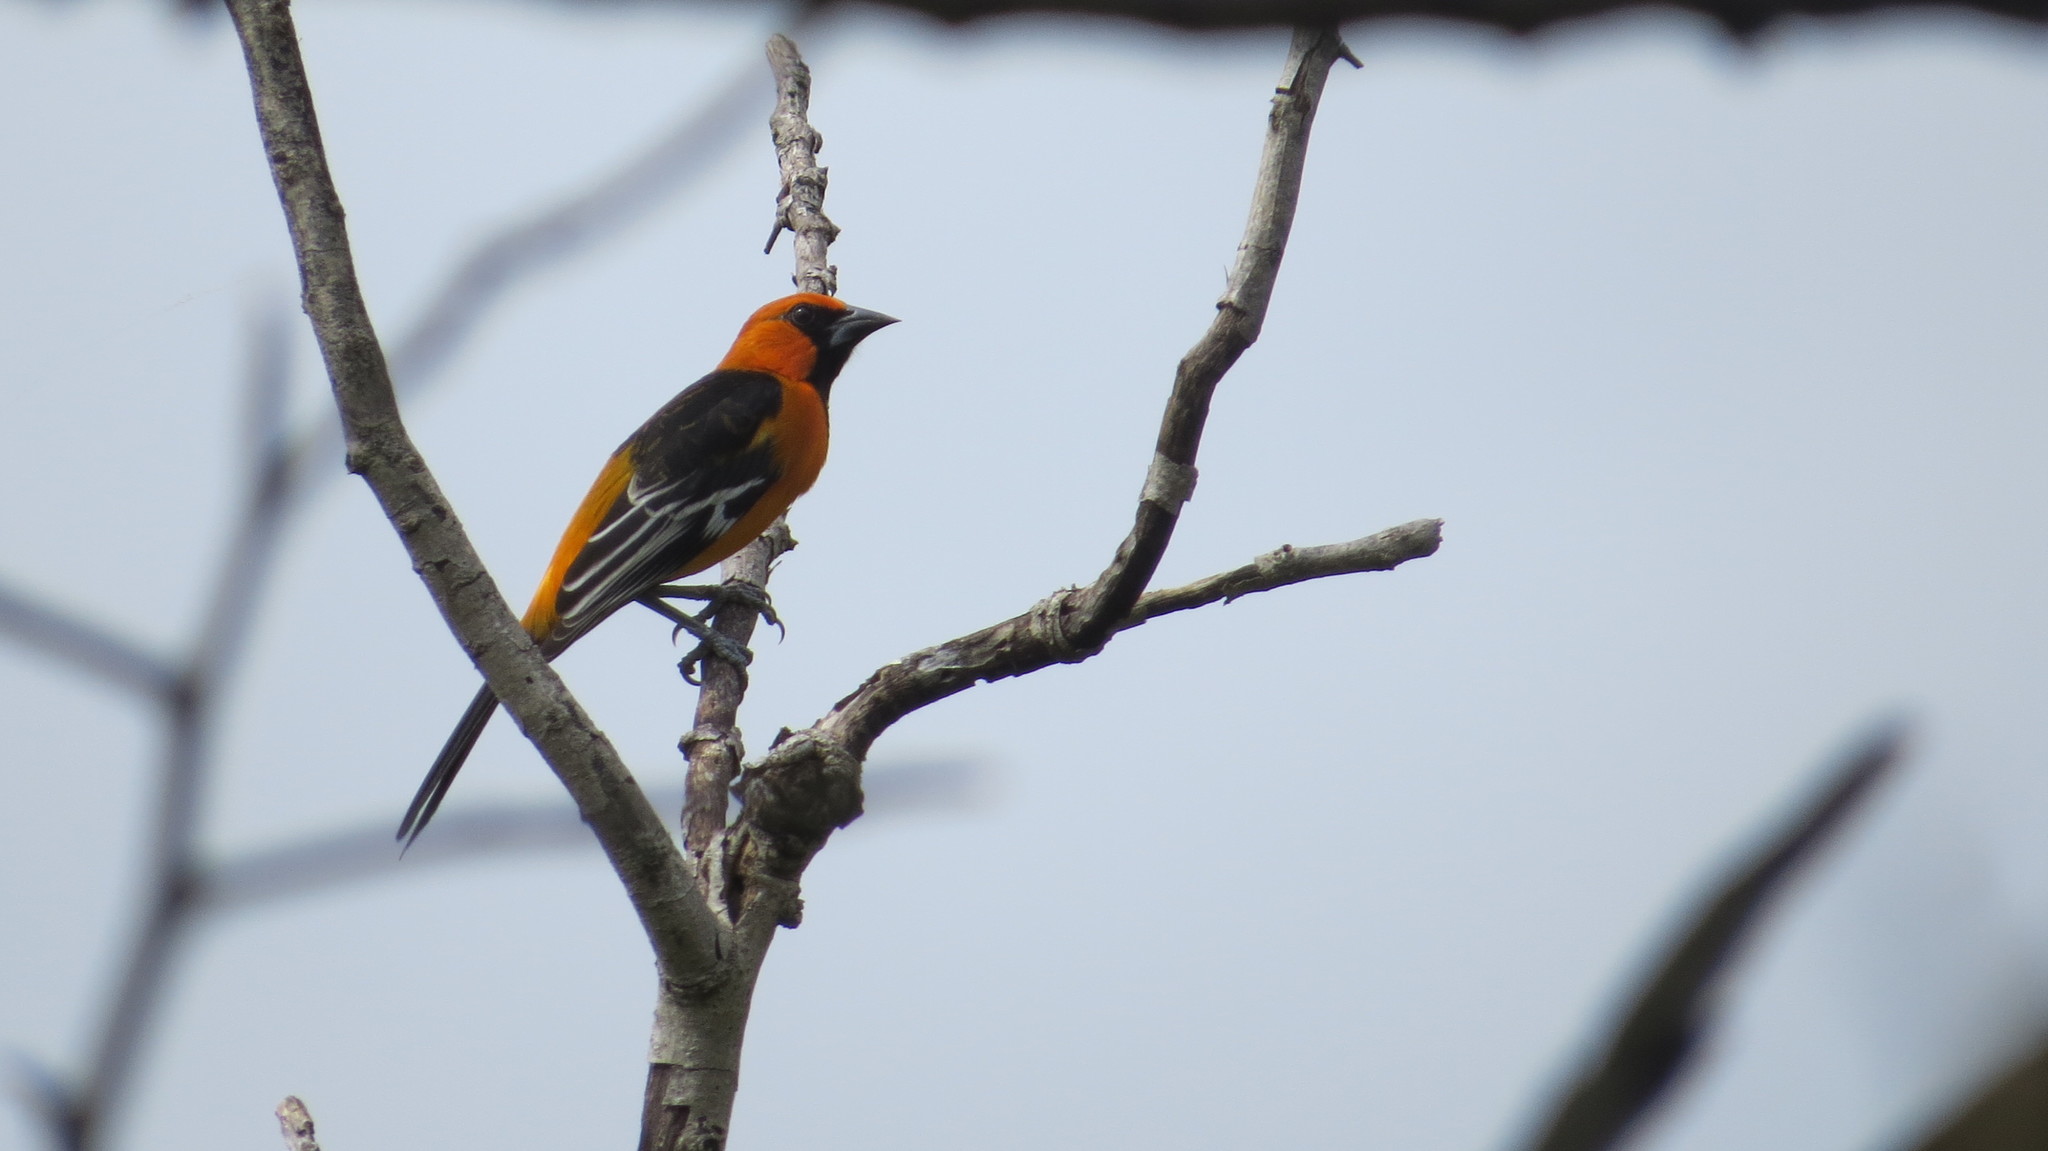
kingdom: Animalia
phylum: Chordata
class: Aves
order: Passeriformes
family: Icteridae
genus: Icterus
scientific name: Icterus gularis
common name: Altamira oriole
